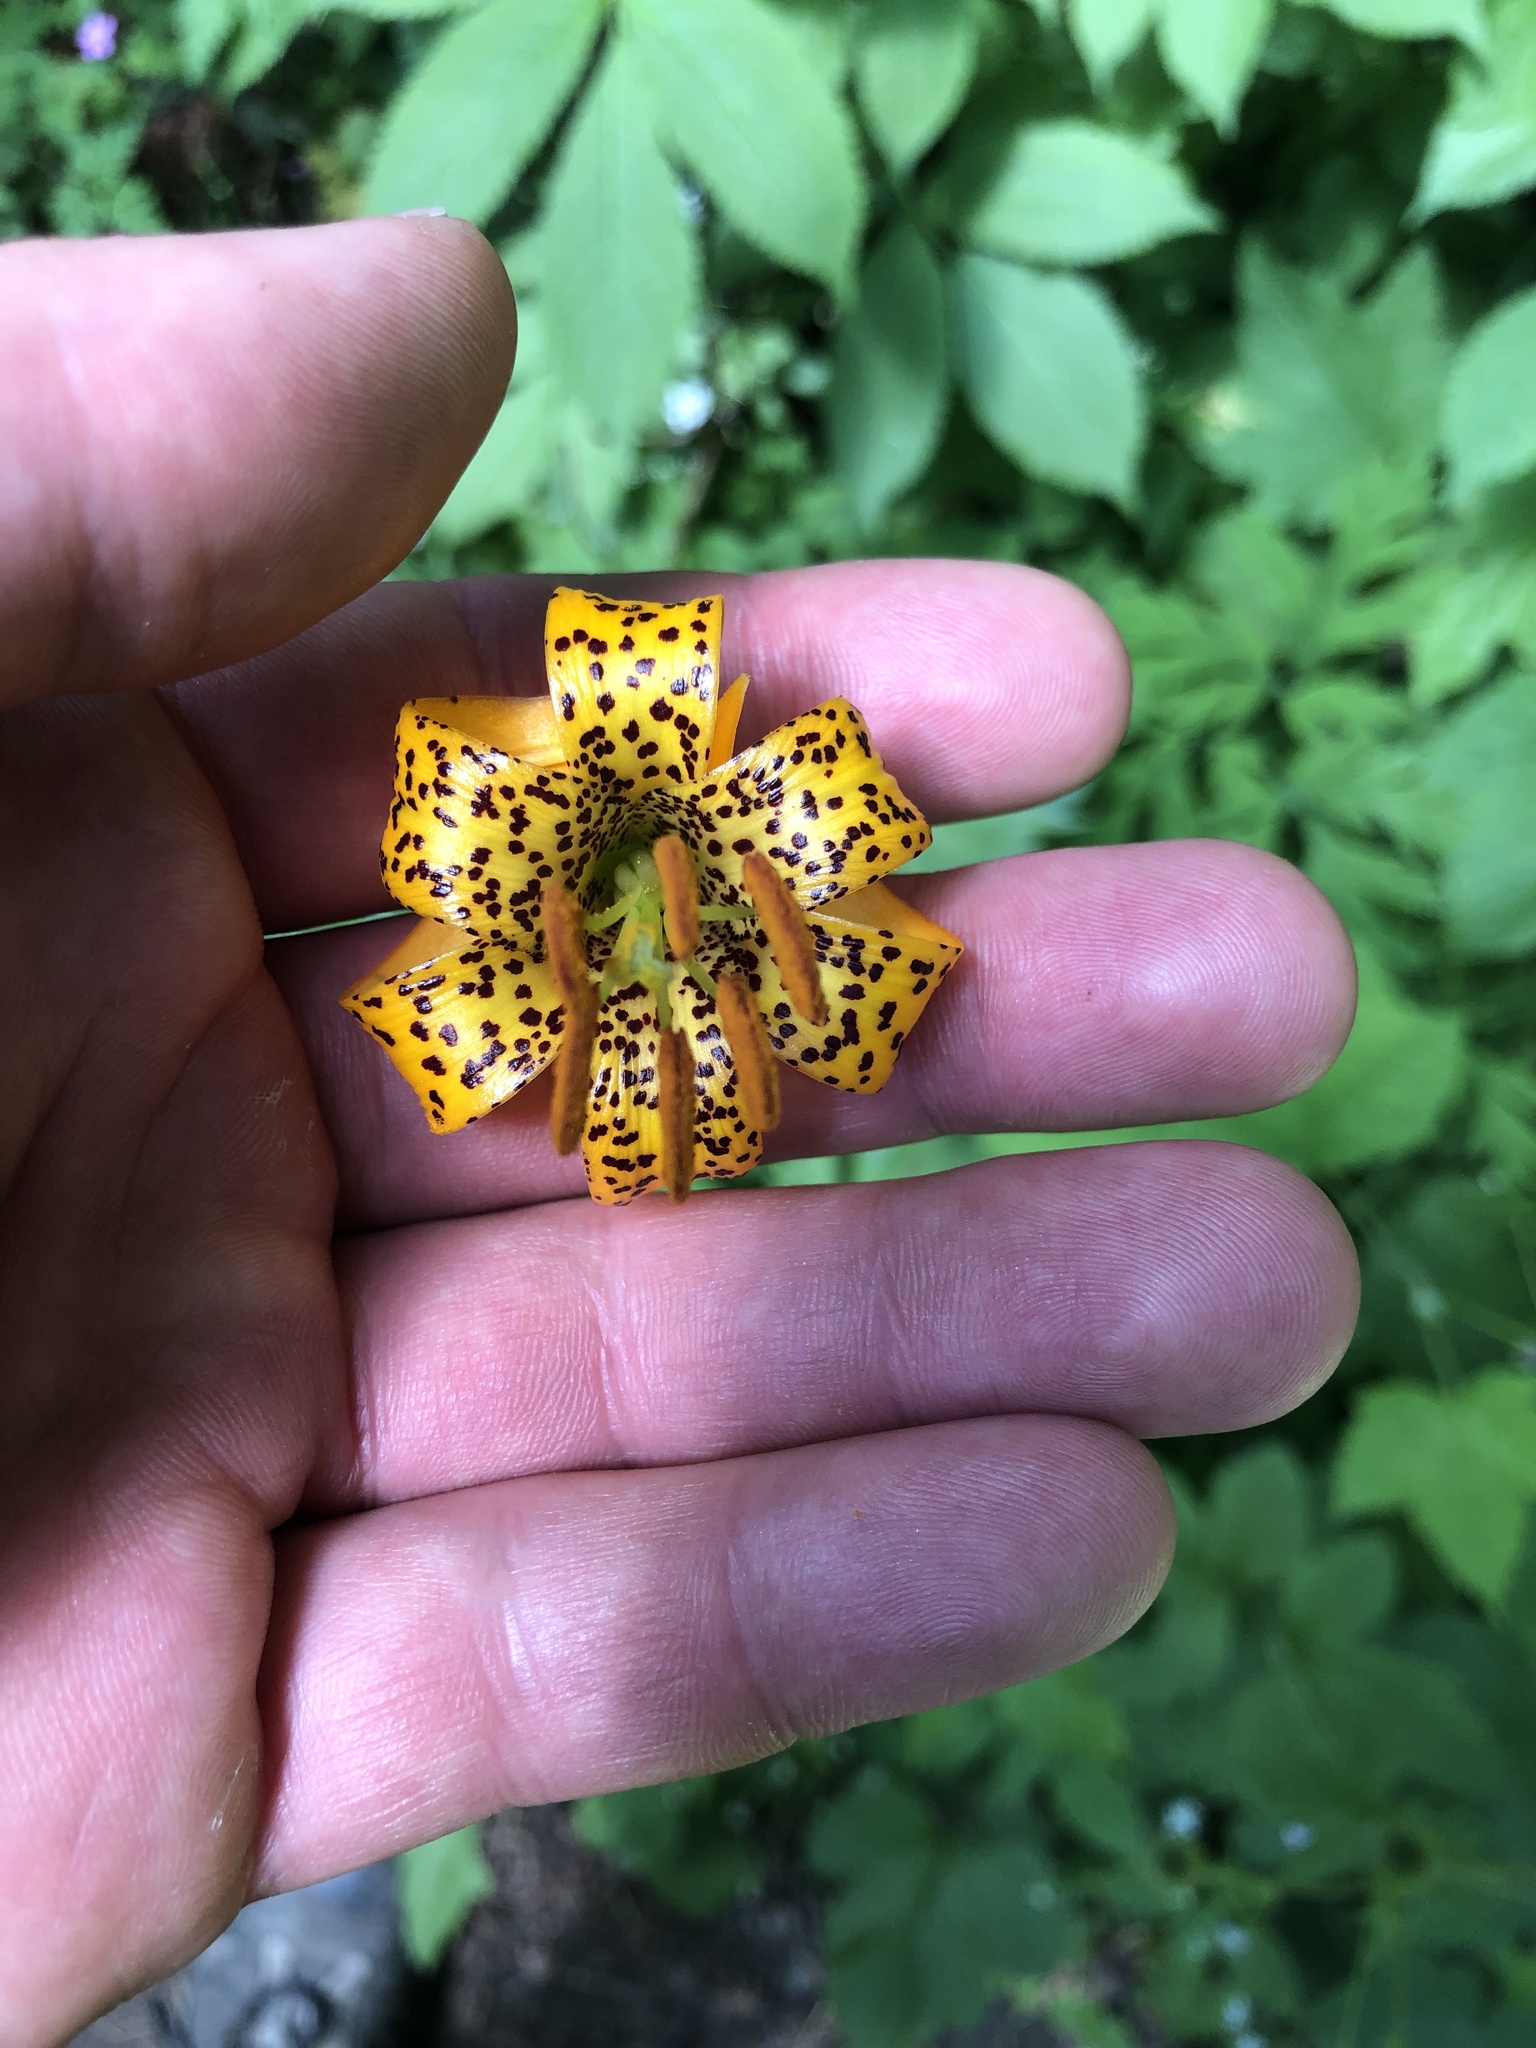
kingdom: Plantae
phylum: Tracheophyta
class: Liliopsida
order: Liliales
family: Liliaceae
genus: Lilium
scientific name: Lilium columbianum
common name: Columbia lily
